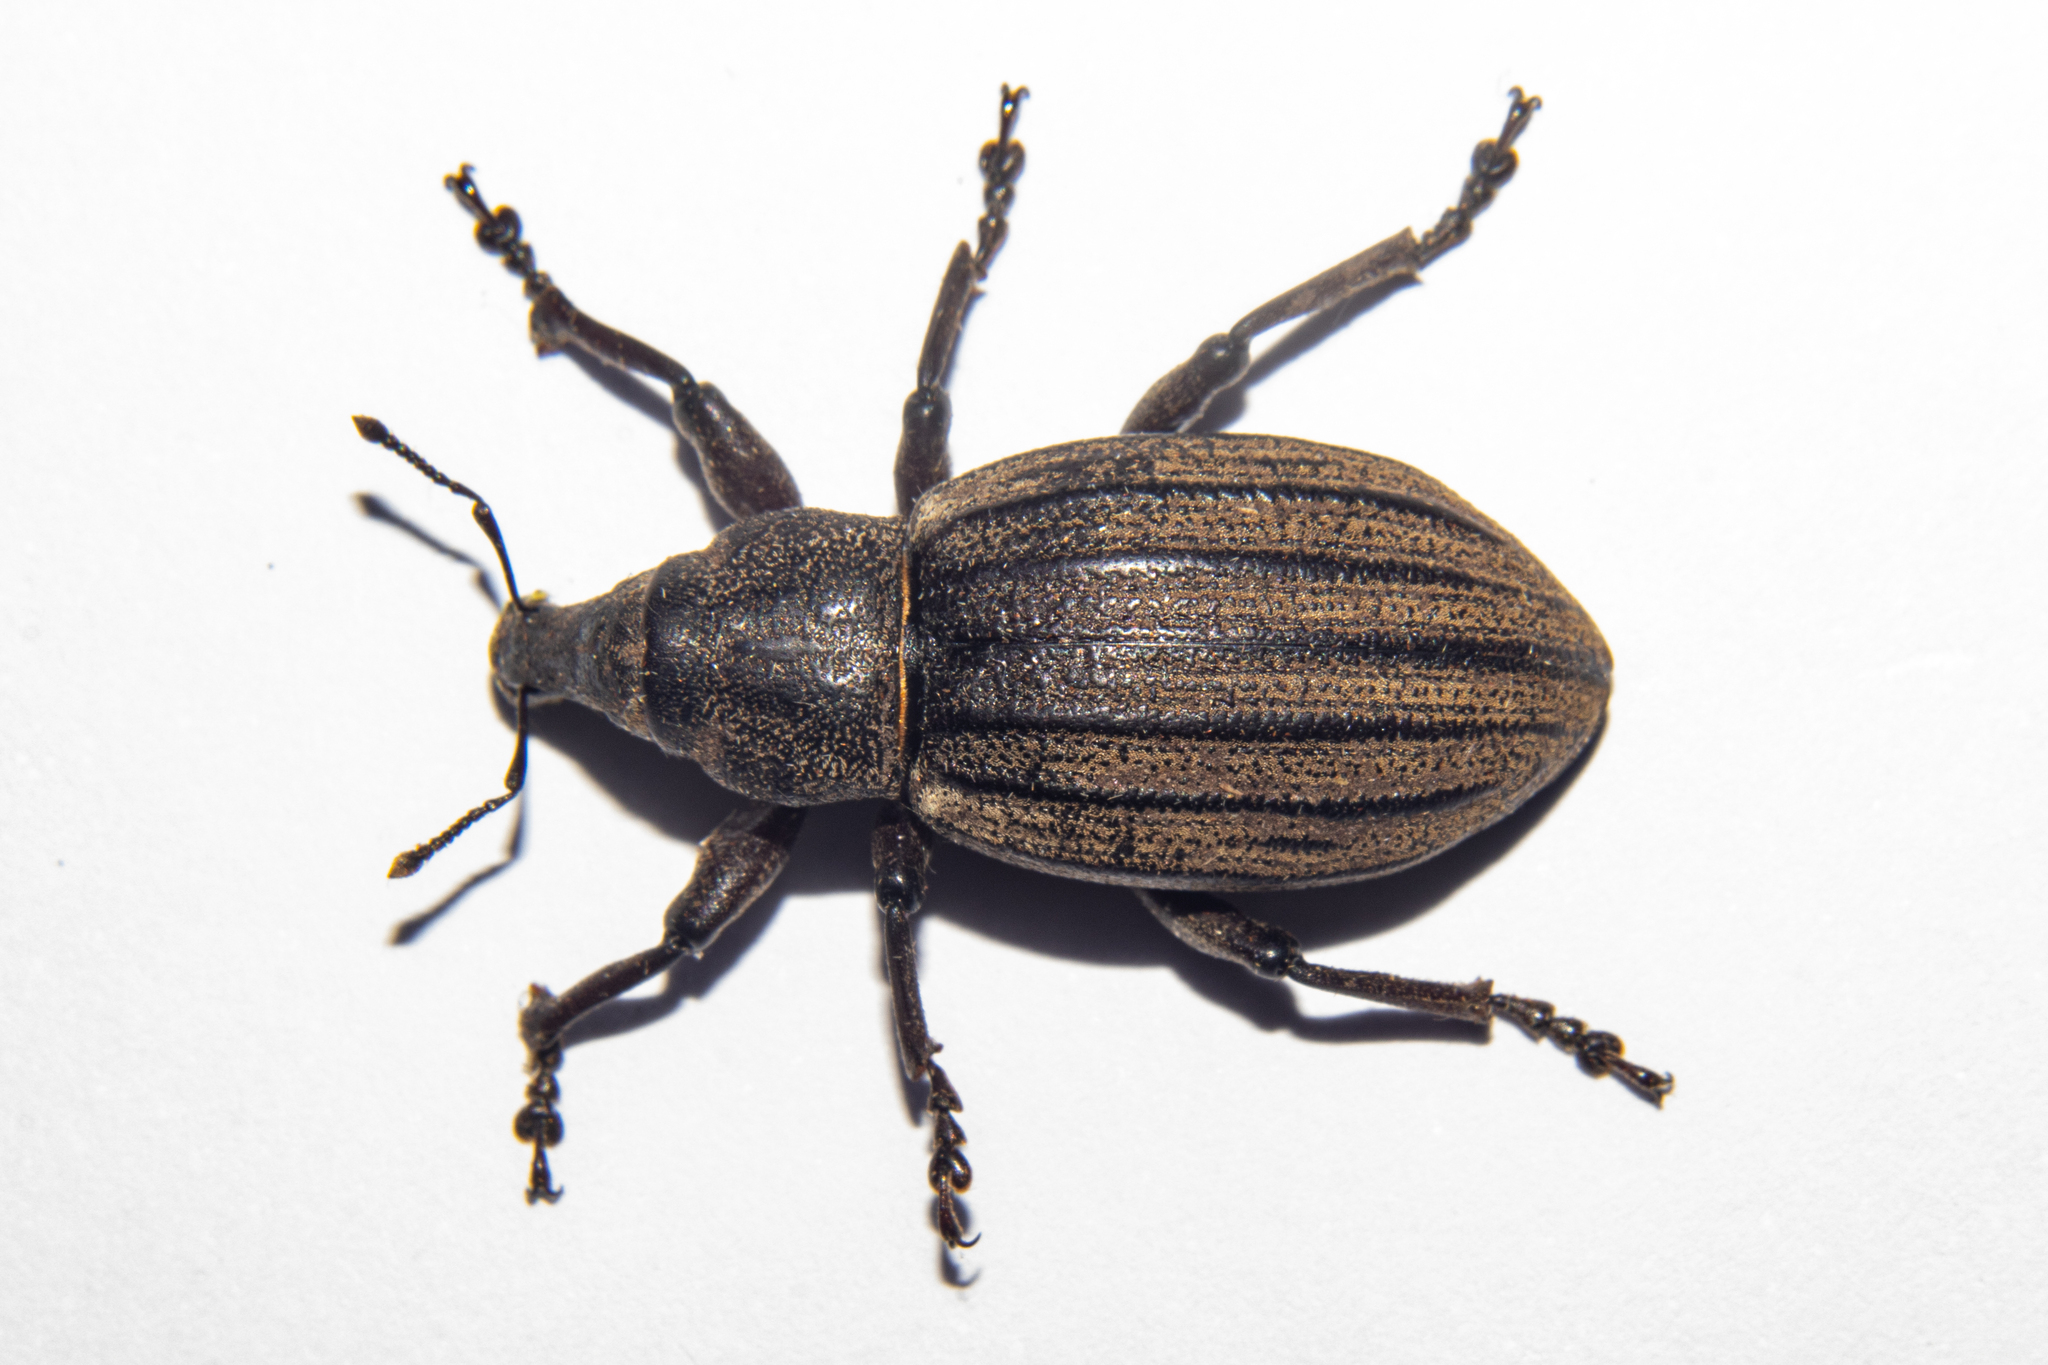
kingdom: Animalia
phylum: Arthropoda
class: Insecta
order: Coleoptera
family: Curculionidae
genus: Lyperobius
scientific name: Lyperobius barbarae
